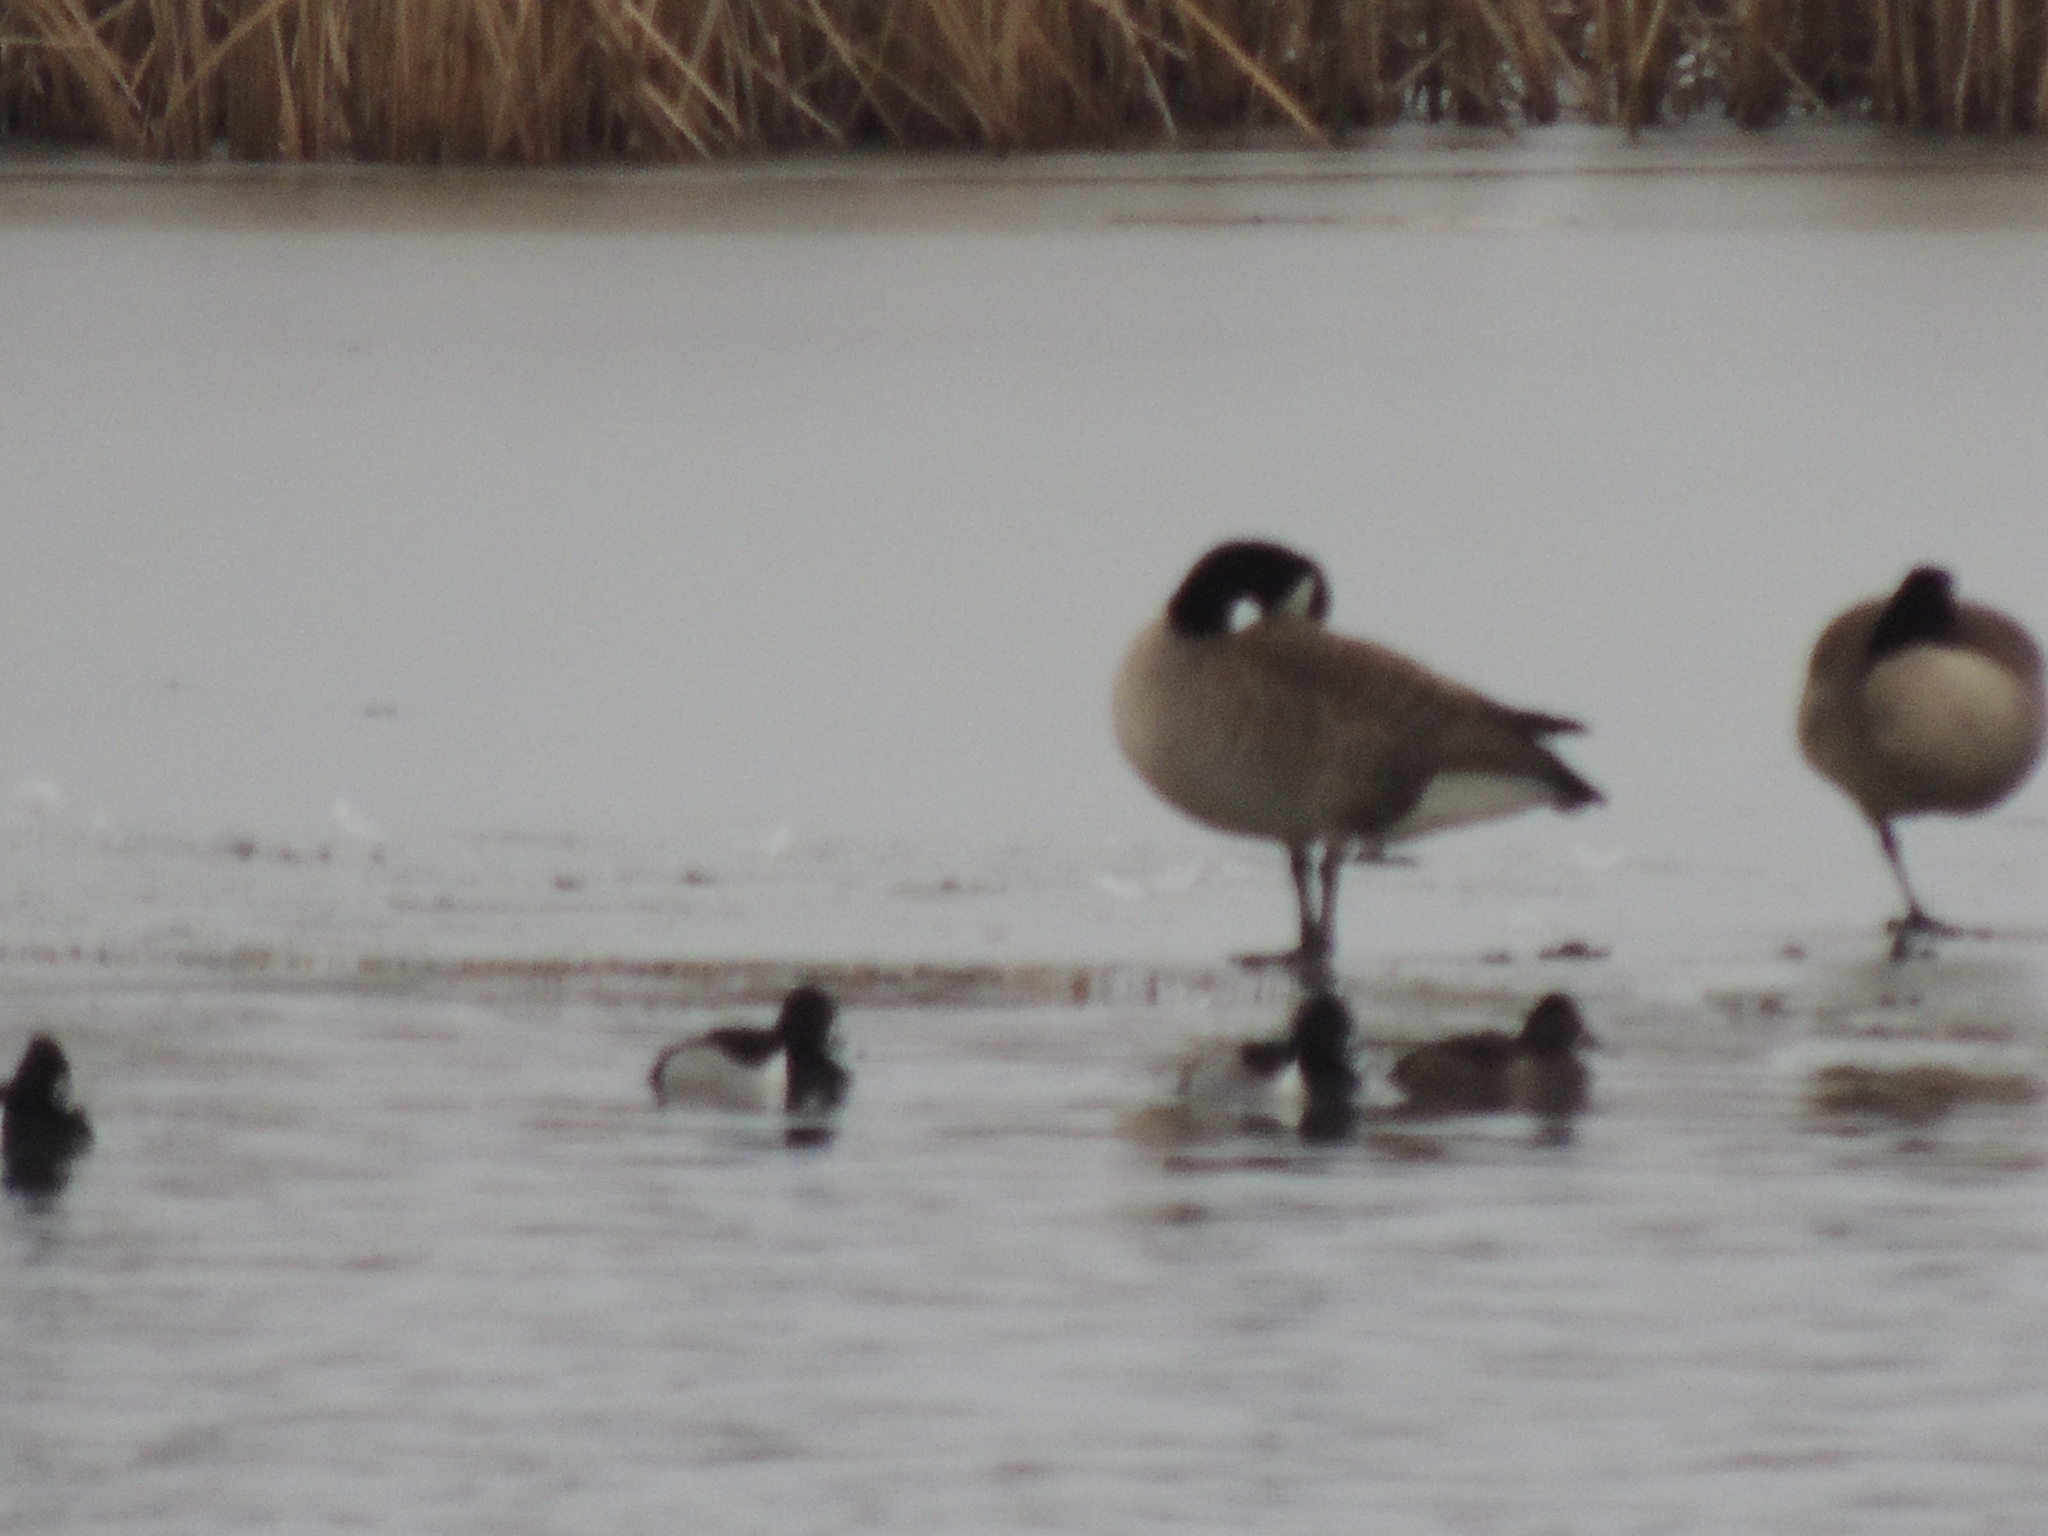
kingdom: Animalia
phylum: Chordata
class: Aves
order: Anseriformes
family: Anatidae
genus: Aythya
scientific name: Aythya collaris
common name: Ring-necked duck
